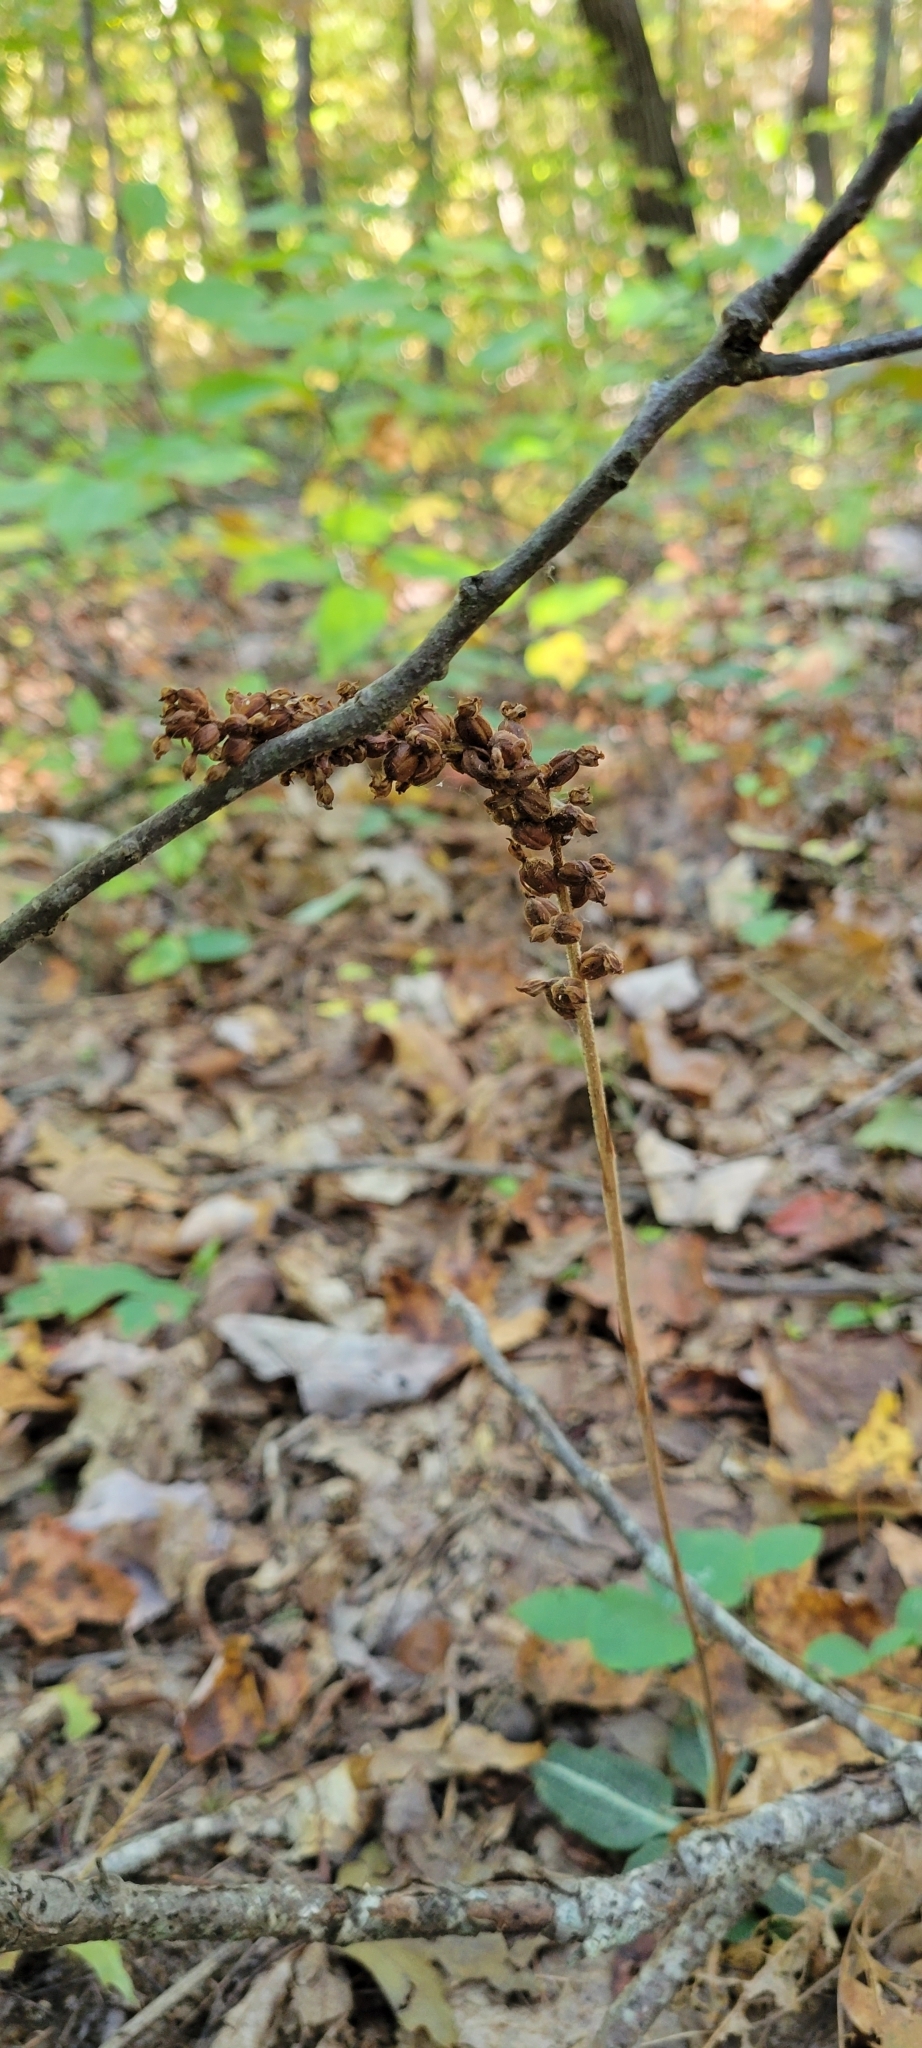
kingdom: Plantae
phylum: Tracheophyta
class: Liliopsida
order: Asparagales
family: Orchidaceae
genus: Goodyera
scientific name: Goodyera pubescens
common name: Downy rattlesnake-plantain
